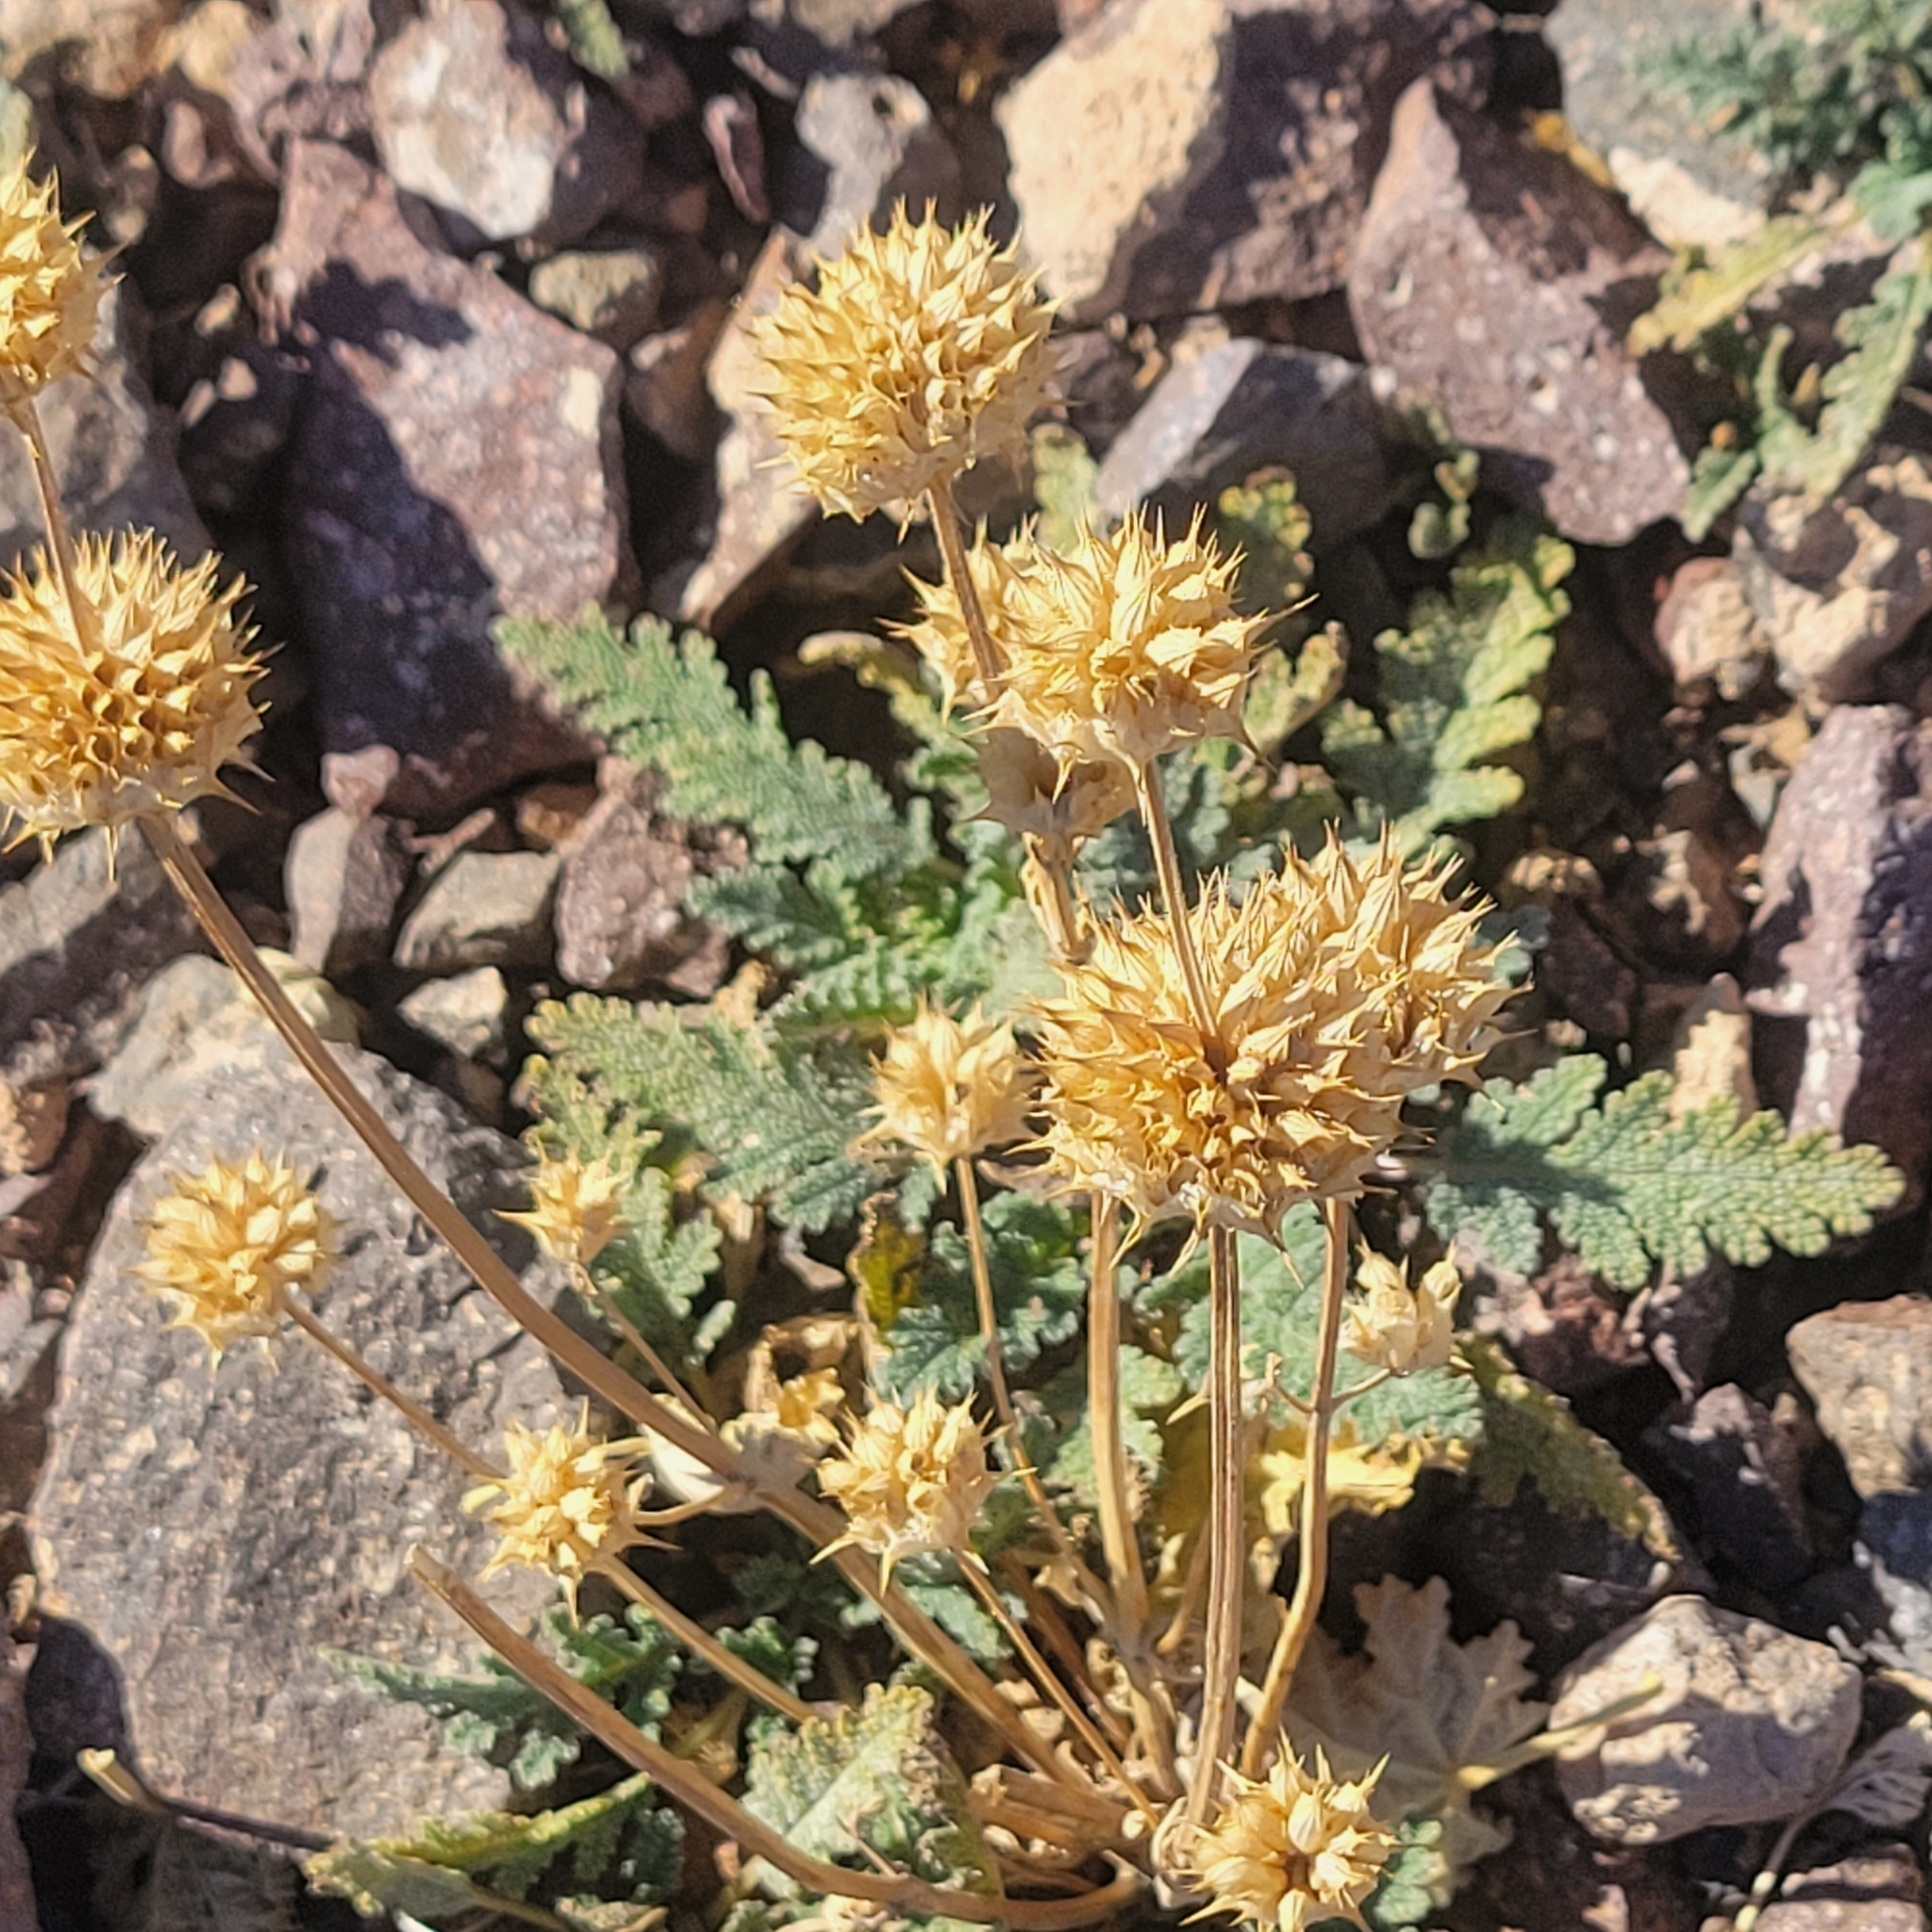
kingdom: Plantae
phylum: Tracheophyta
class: Magnoliopsida
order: Lamiales
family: Lamiaceae
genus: Salvia
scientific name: Salvia columbariae
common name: Chia
